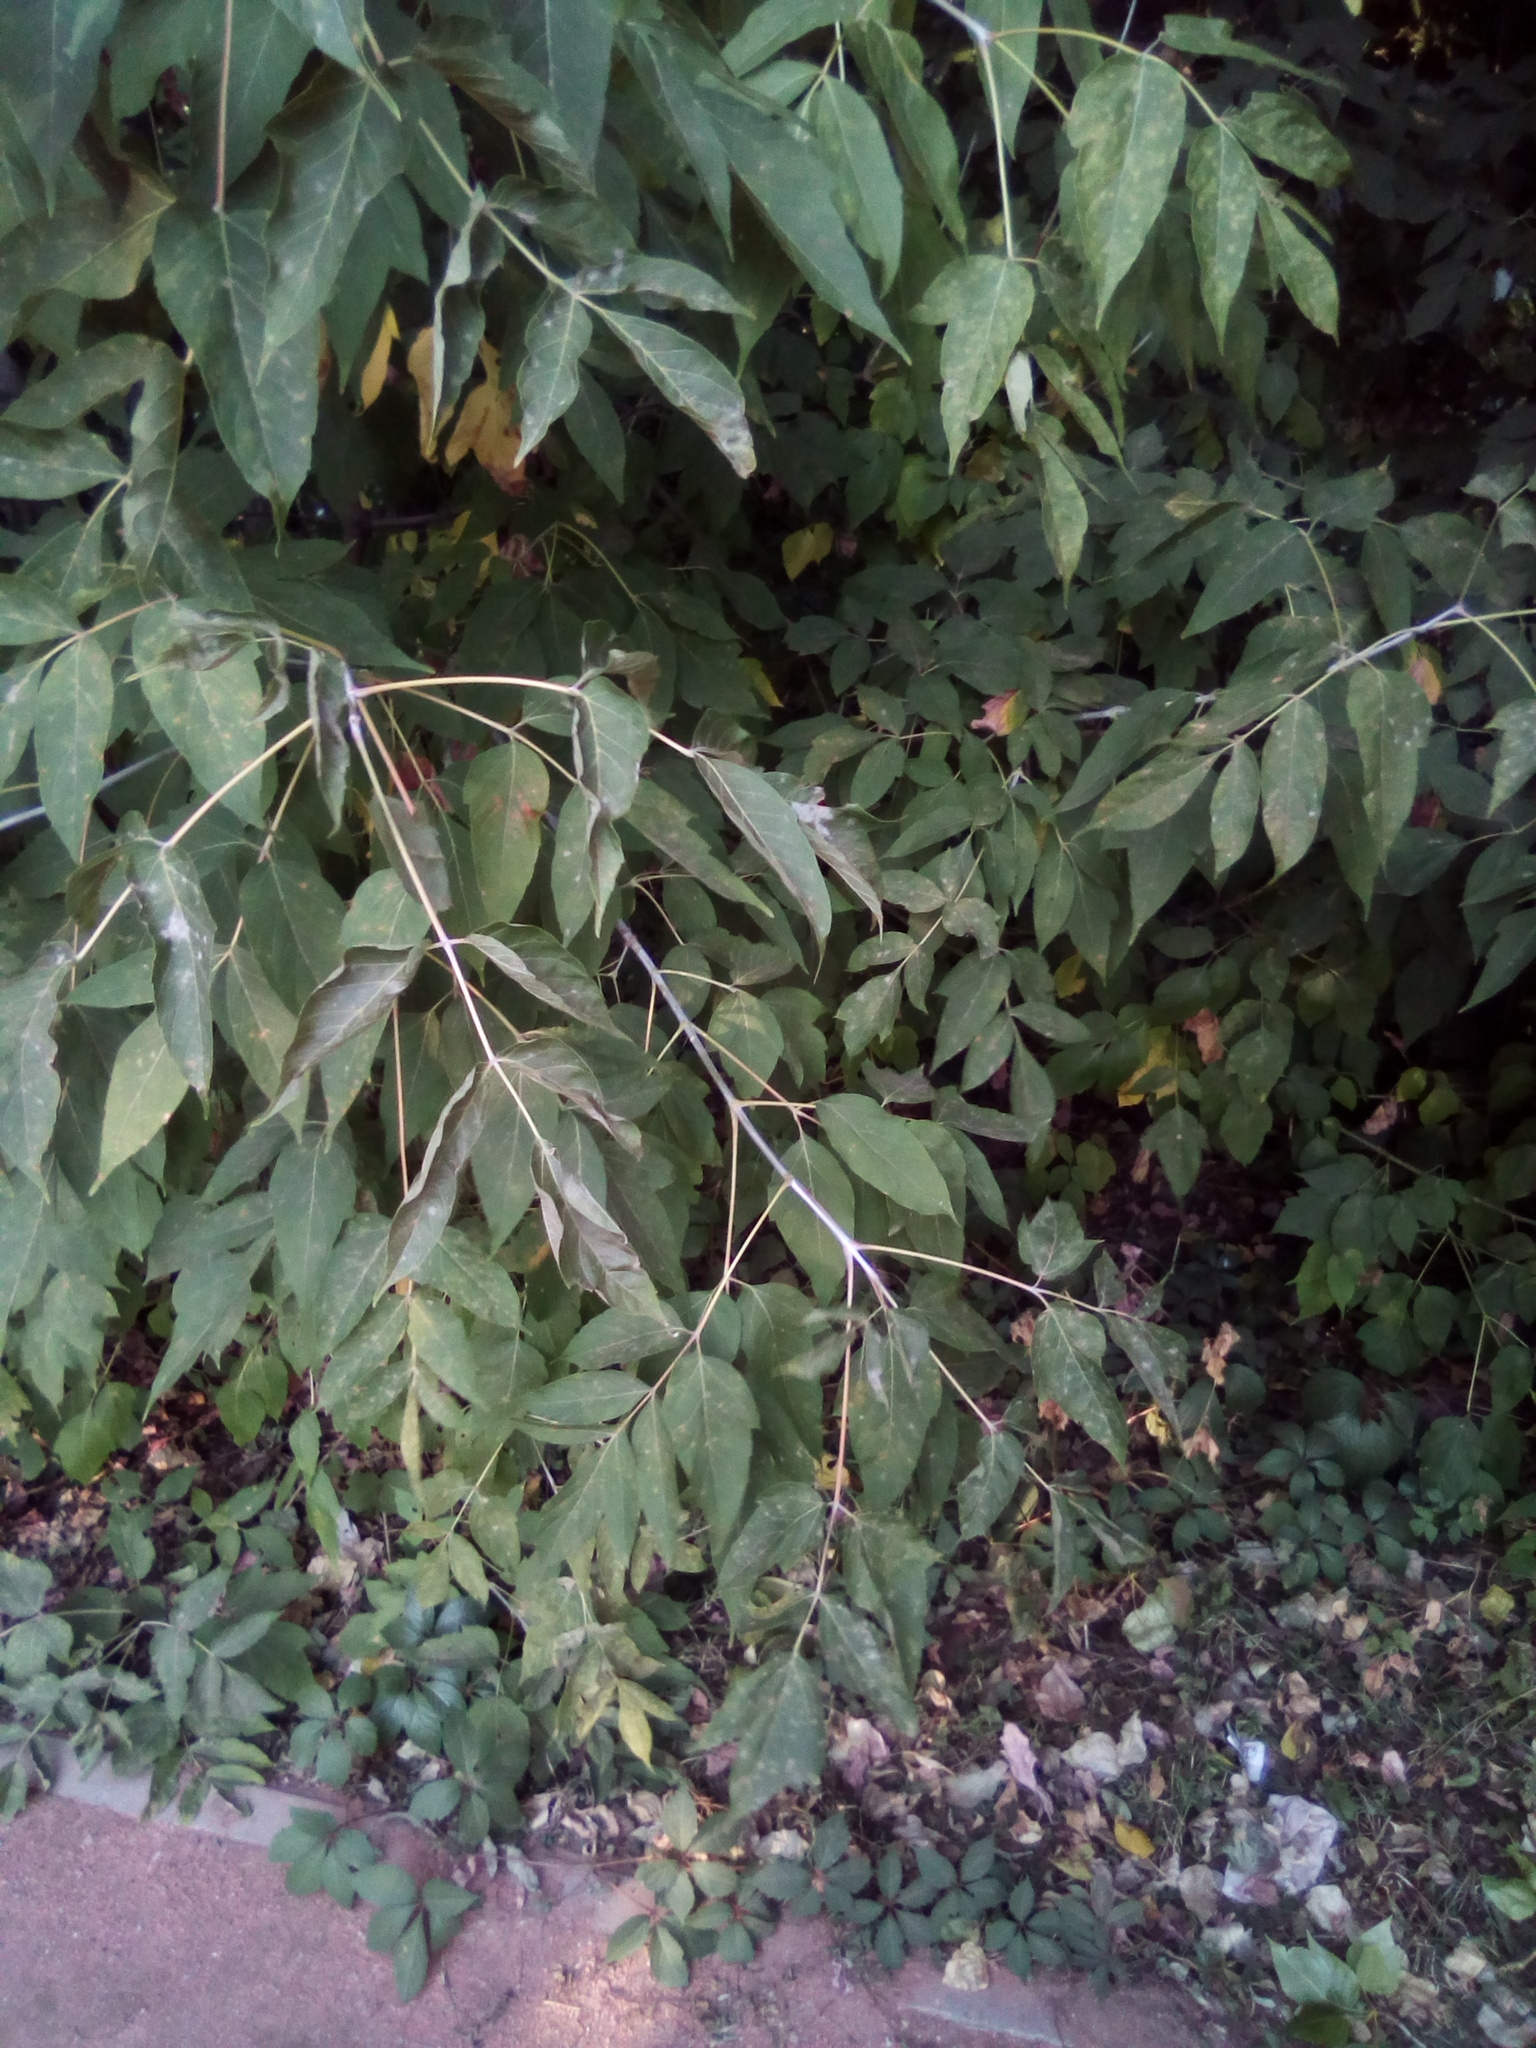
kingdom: Plantae
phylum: Tracheophyta
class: Magnoliopsida
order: Sapindales
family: Sapindaceae
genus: Acer
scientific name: Acer negundo
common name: Ashleaf maple
